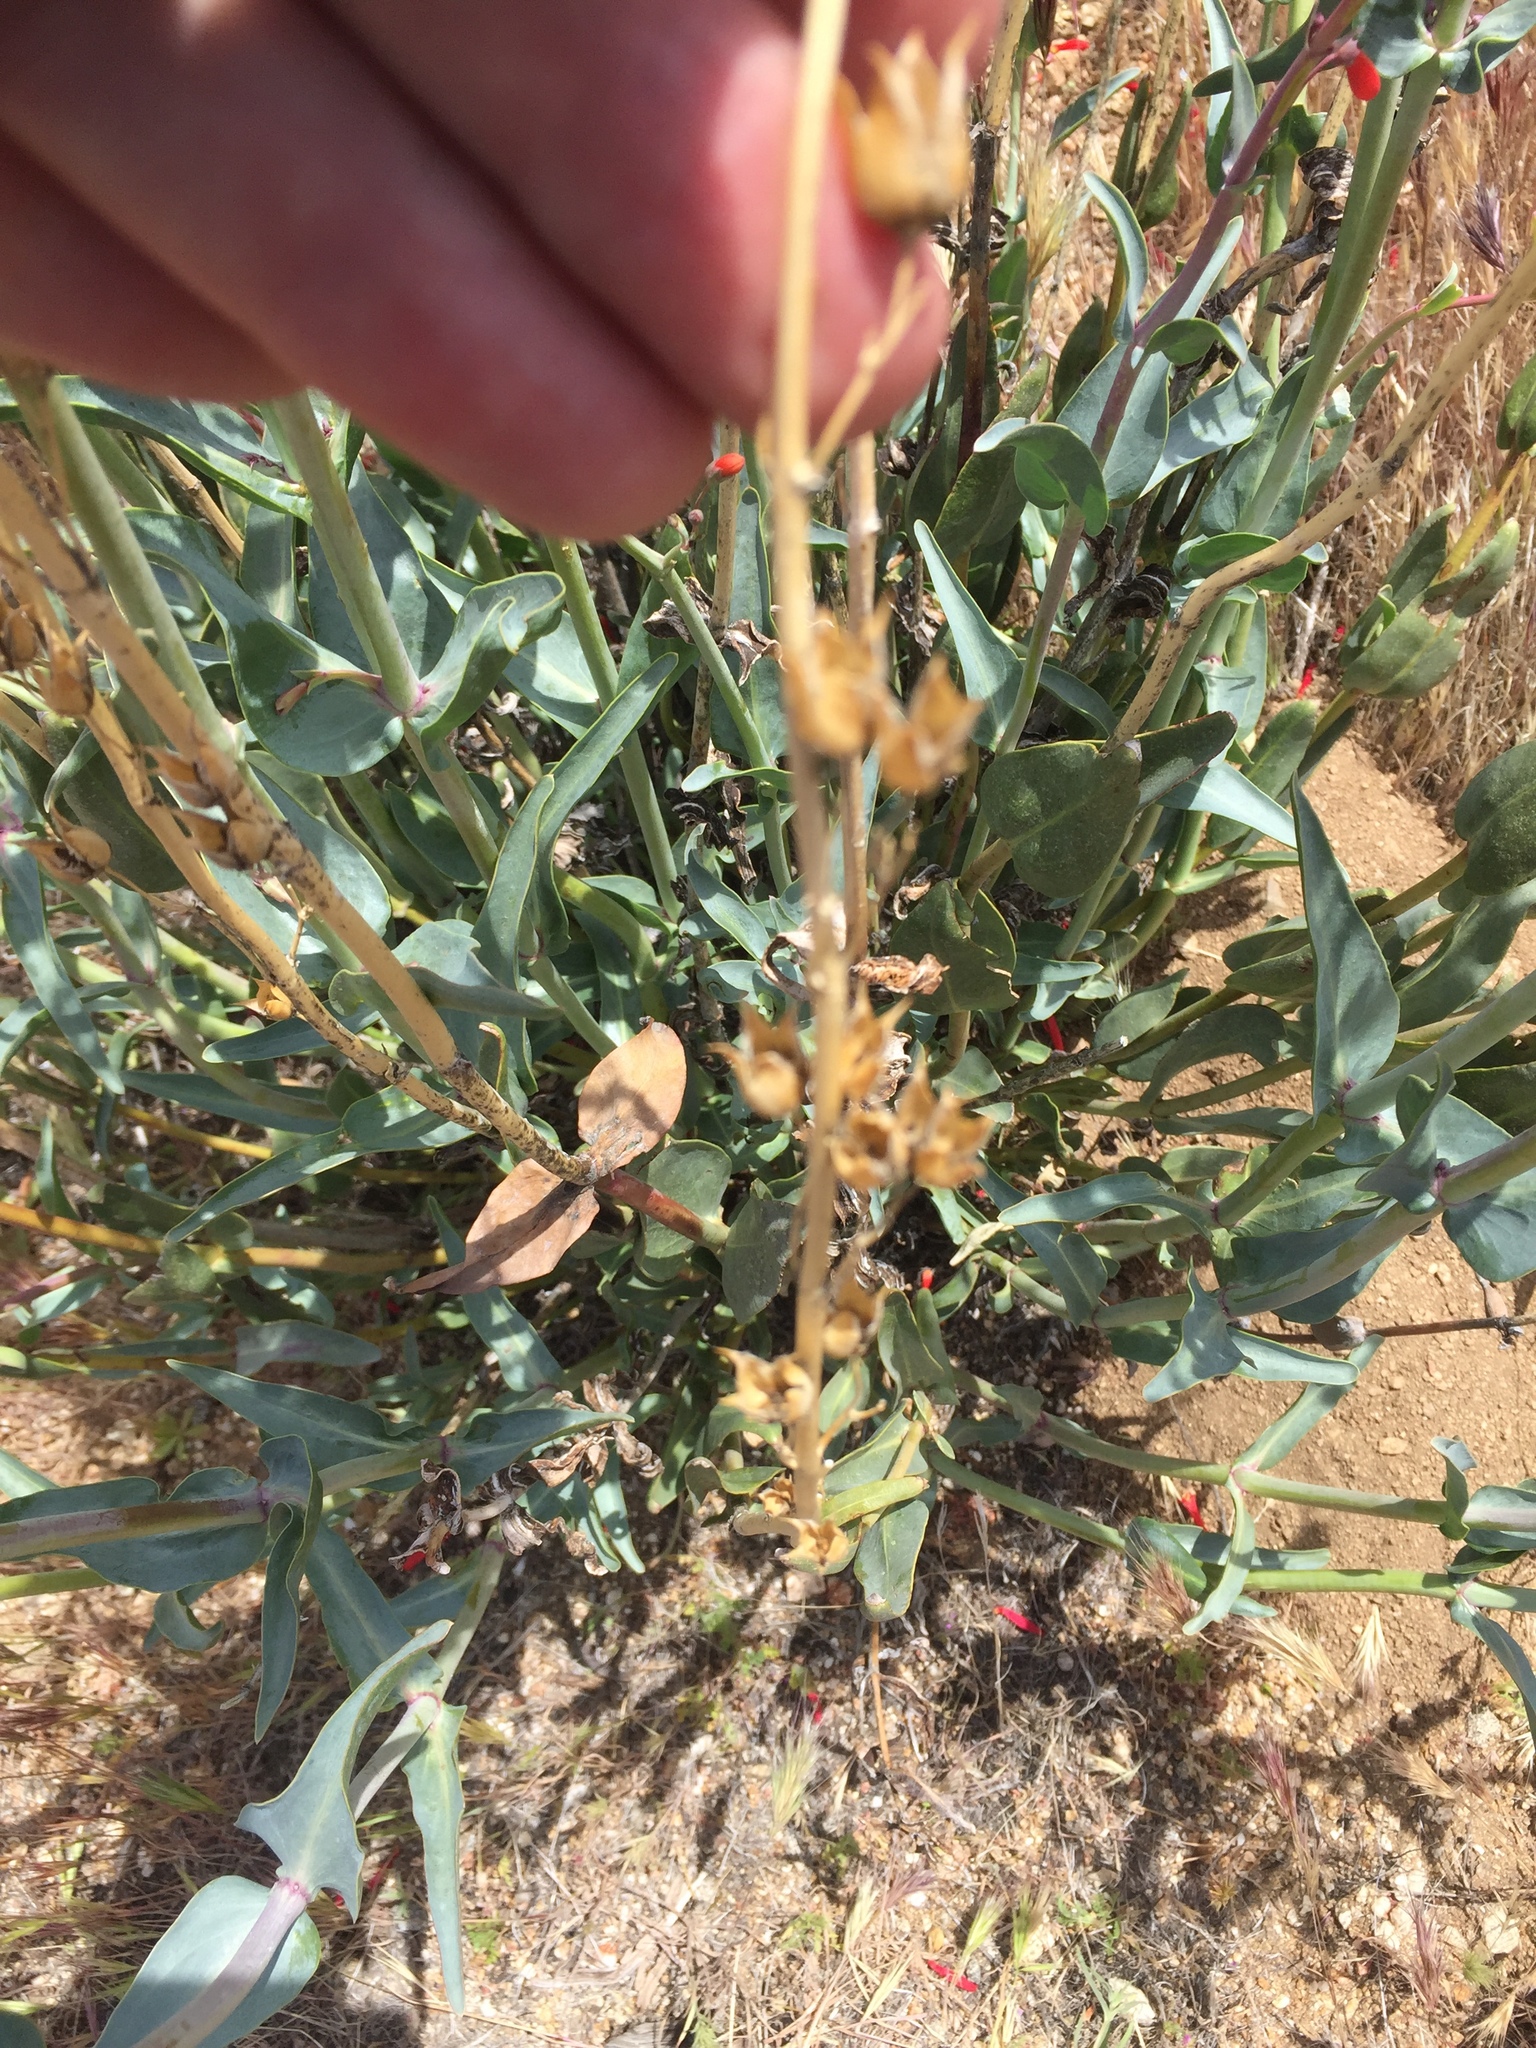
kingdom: Plantae
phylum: Tracheophyta
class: Magnoliopsida
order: Lamiales
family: Plantaginaceae
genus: Penstemon
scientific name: Penstemon centranthifolius
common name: Scarlet bugler
